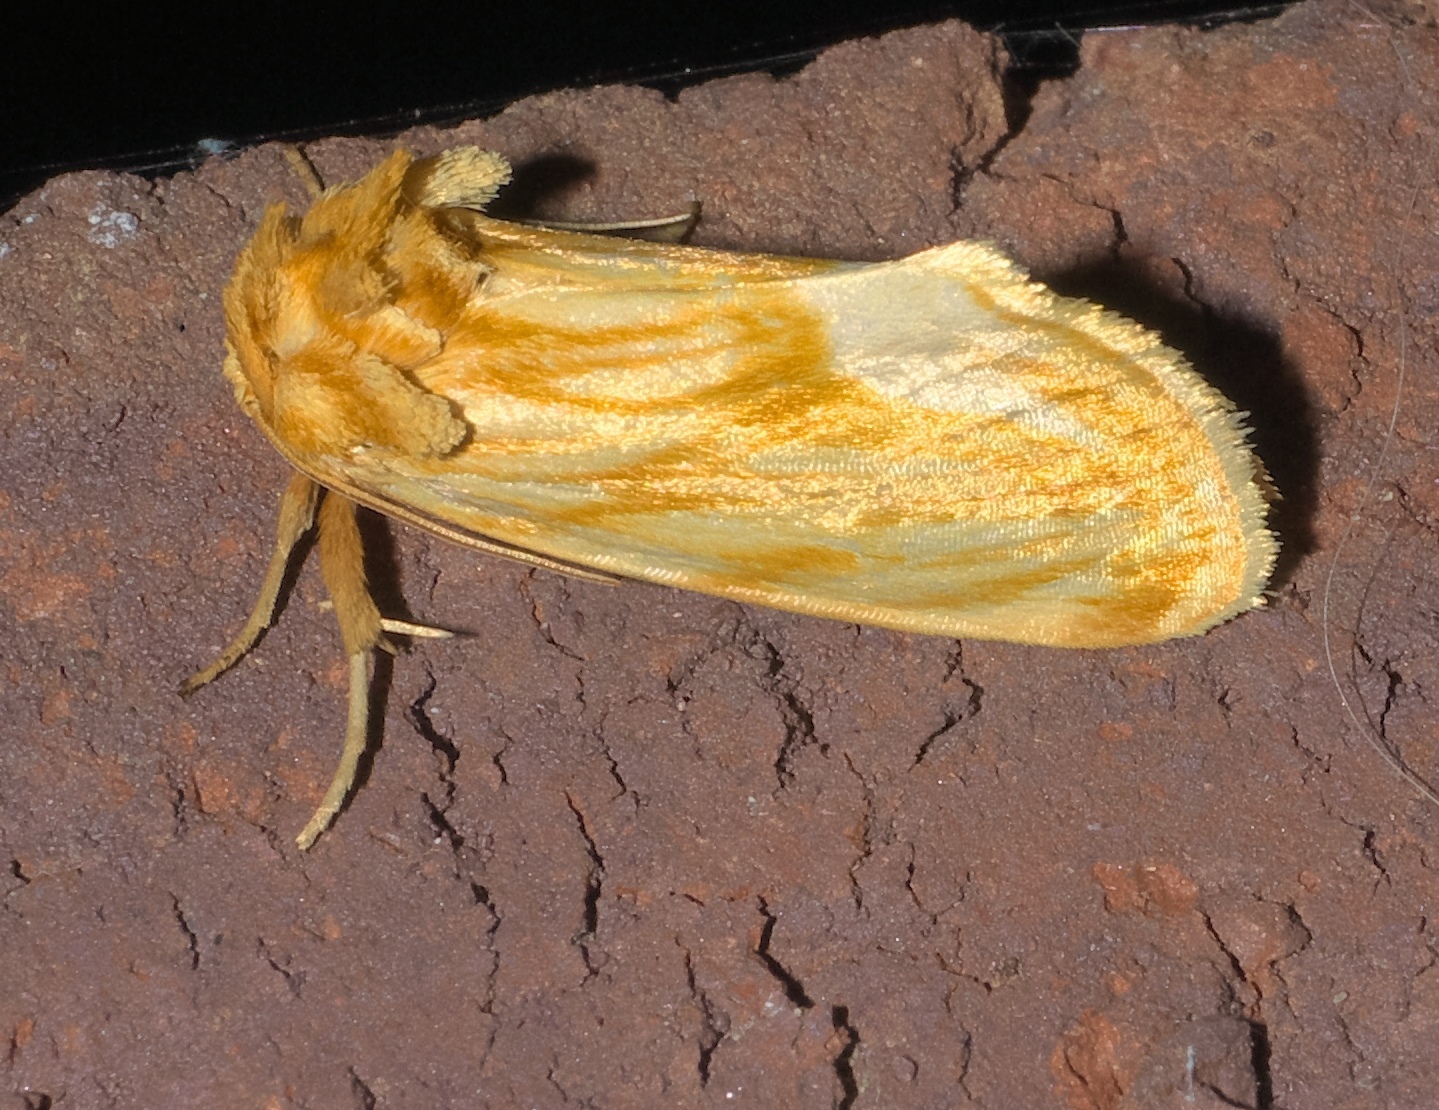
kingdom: Animalia
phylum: Arthropoda
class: Insecta
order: Lepidoptera
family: Noctuidae
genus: Cirrhophanus
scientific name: Cirrhophanus triangulifer
